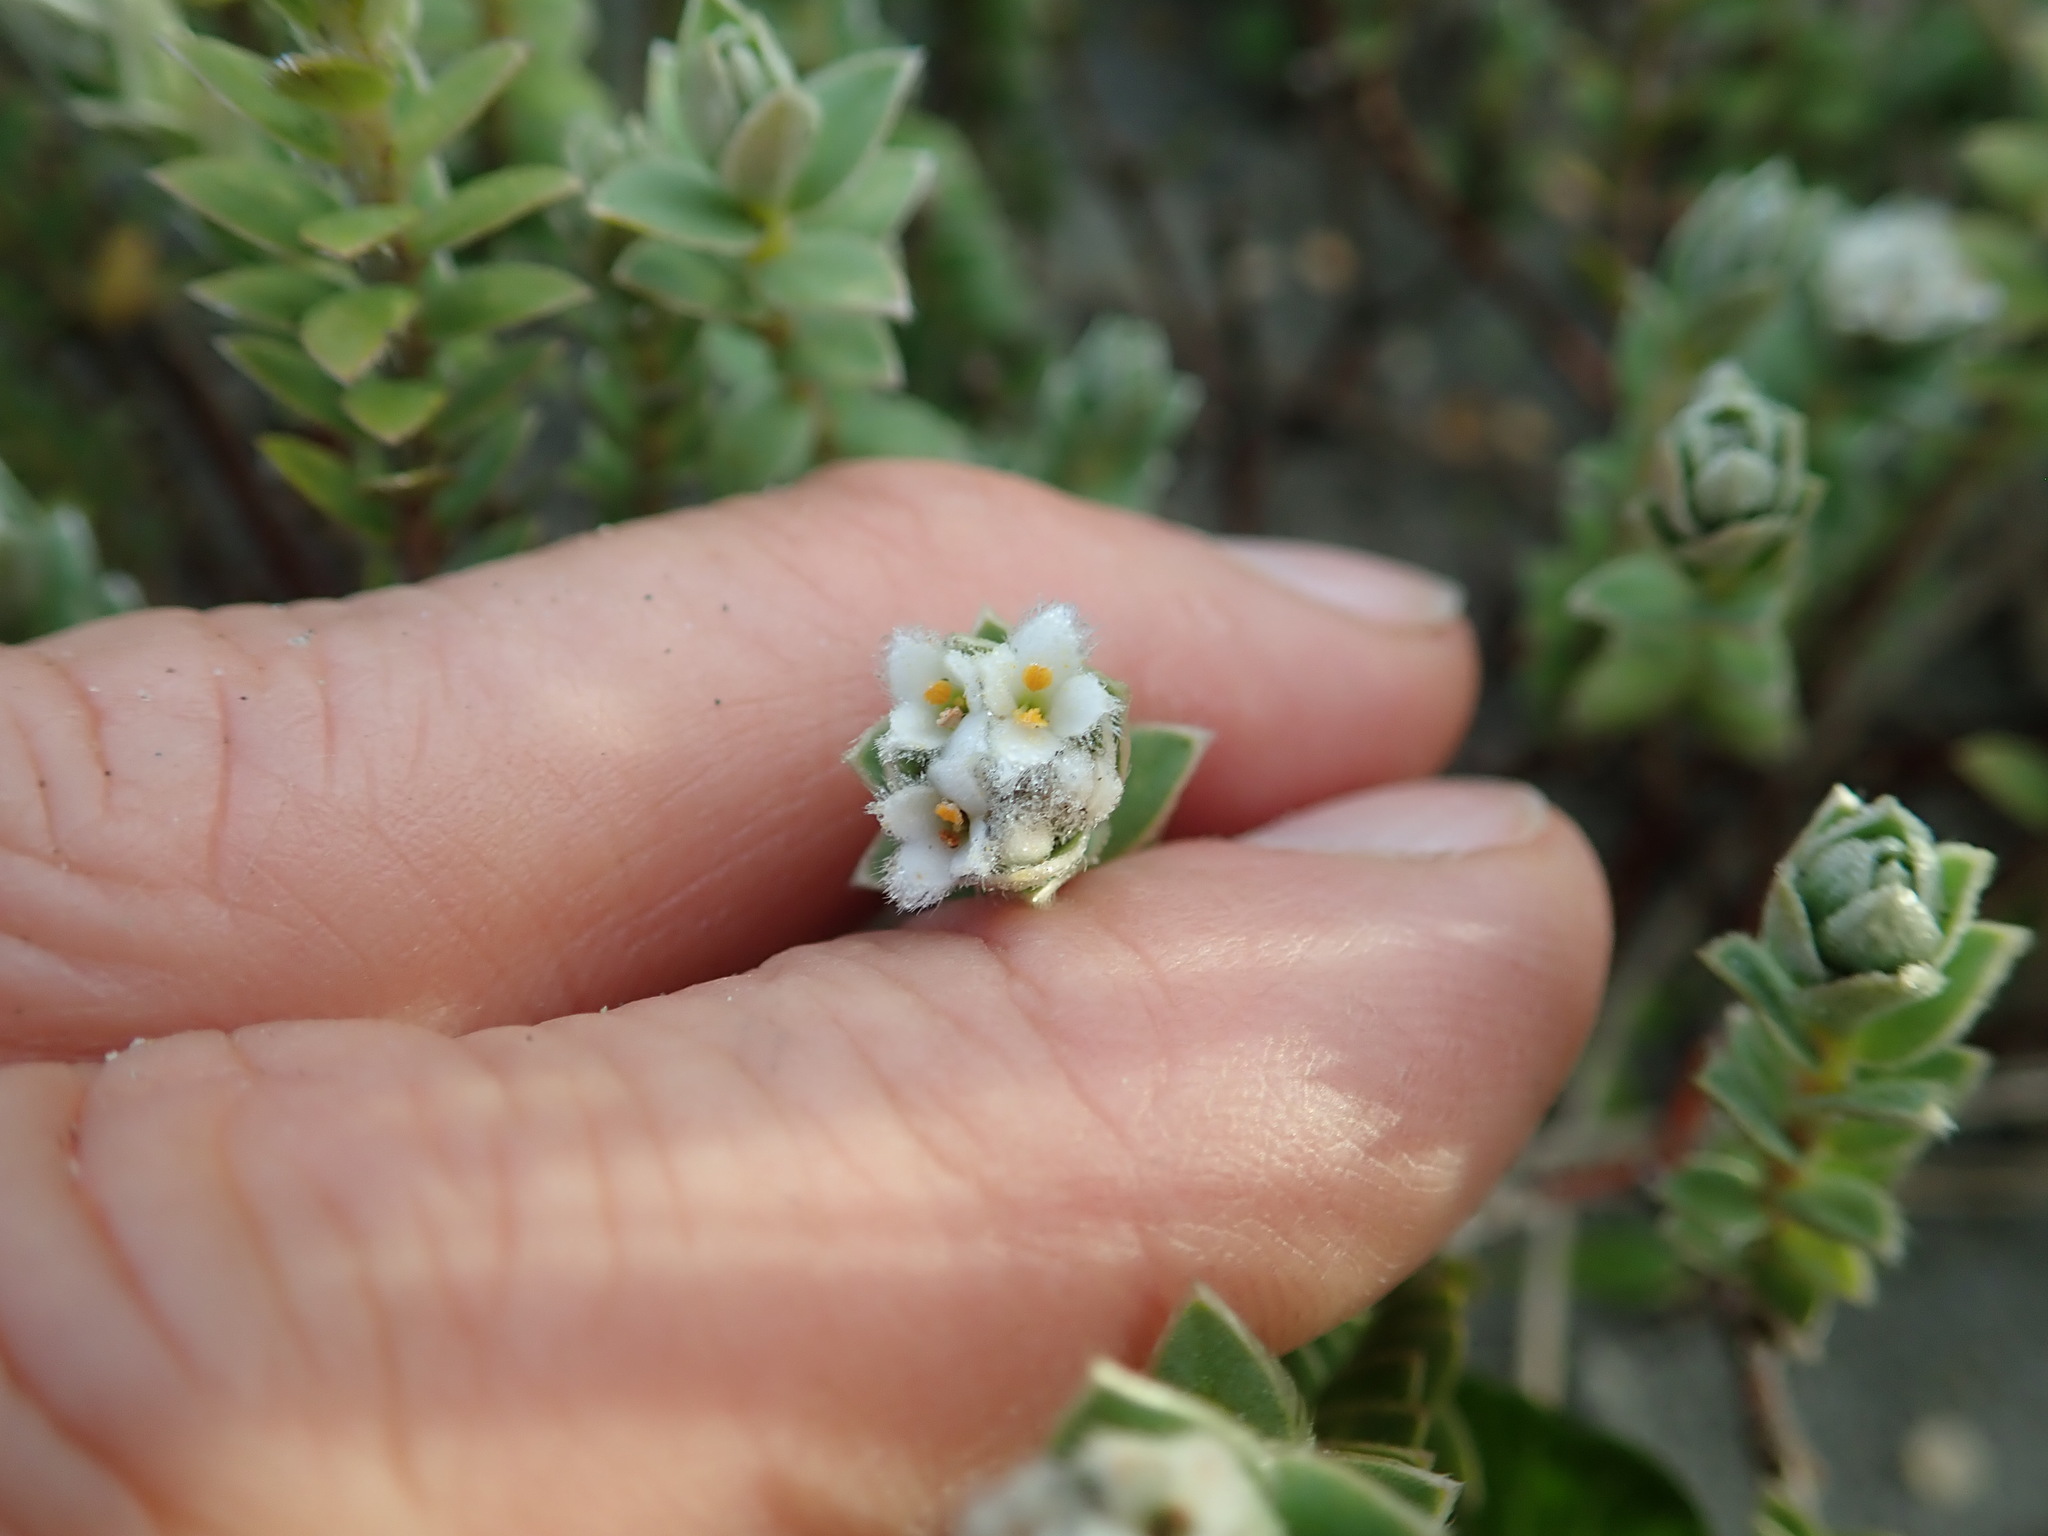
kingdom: Plantae
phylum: Tracheophyta
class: Magnoliopsida
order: Malvales
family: Thymelaeaceae
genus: Pimelea
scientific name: Pimelea villosa
